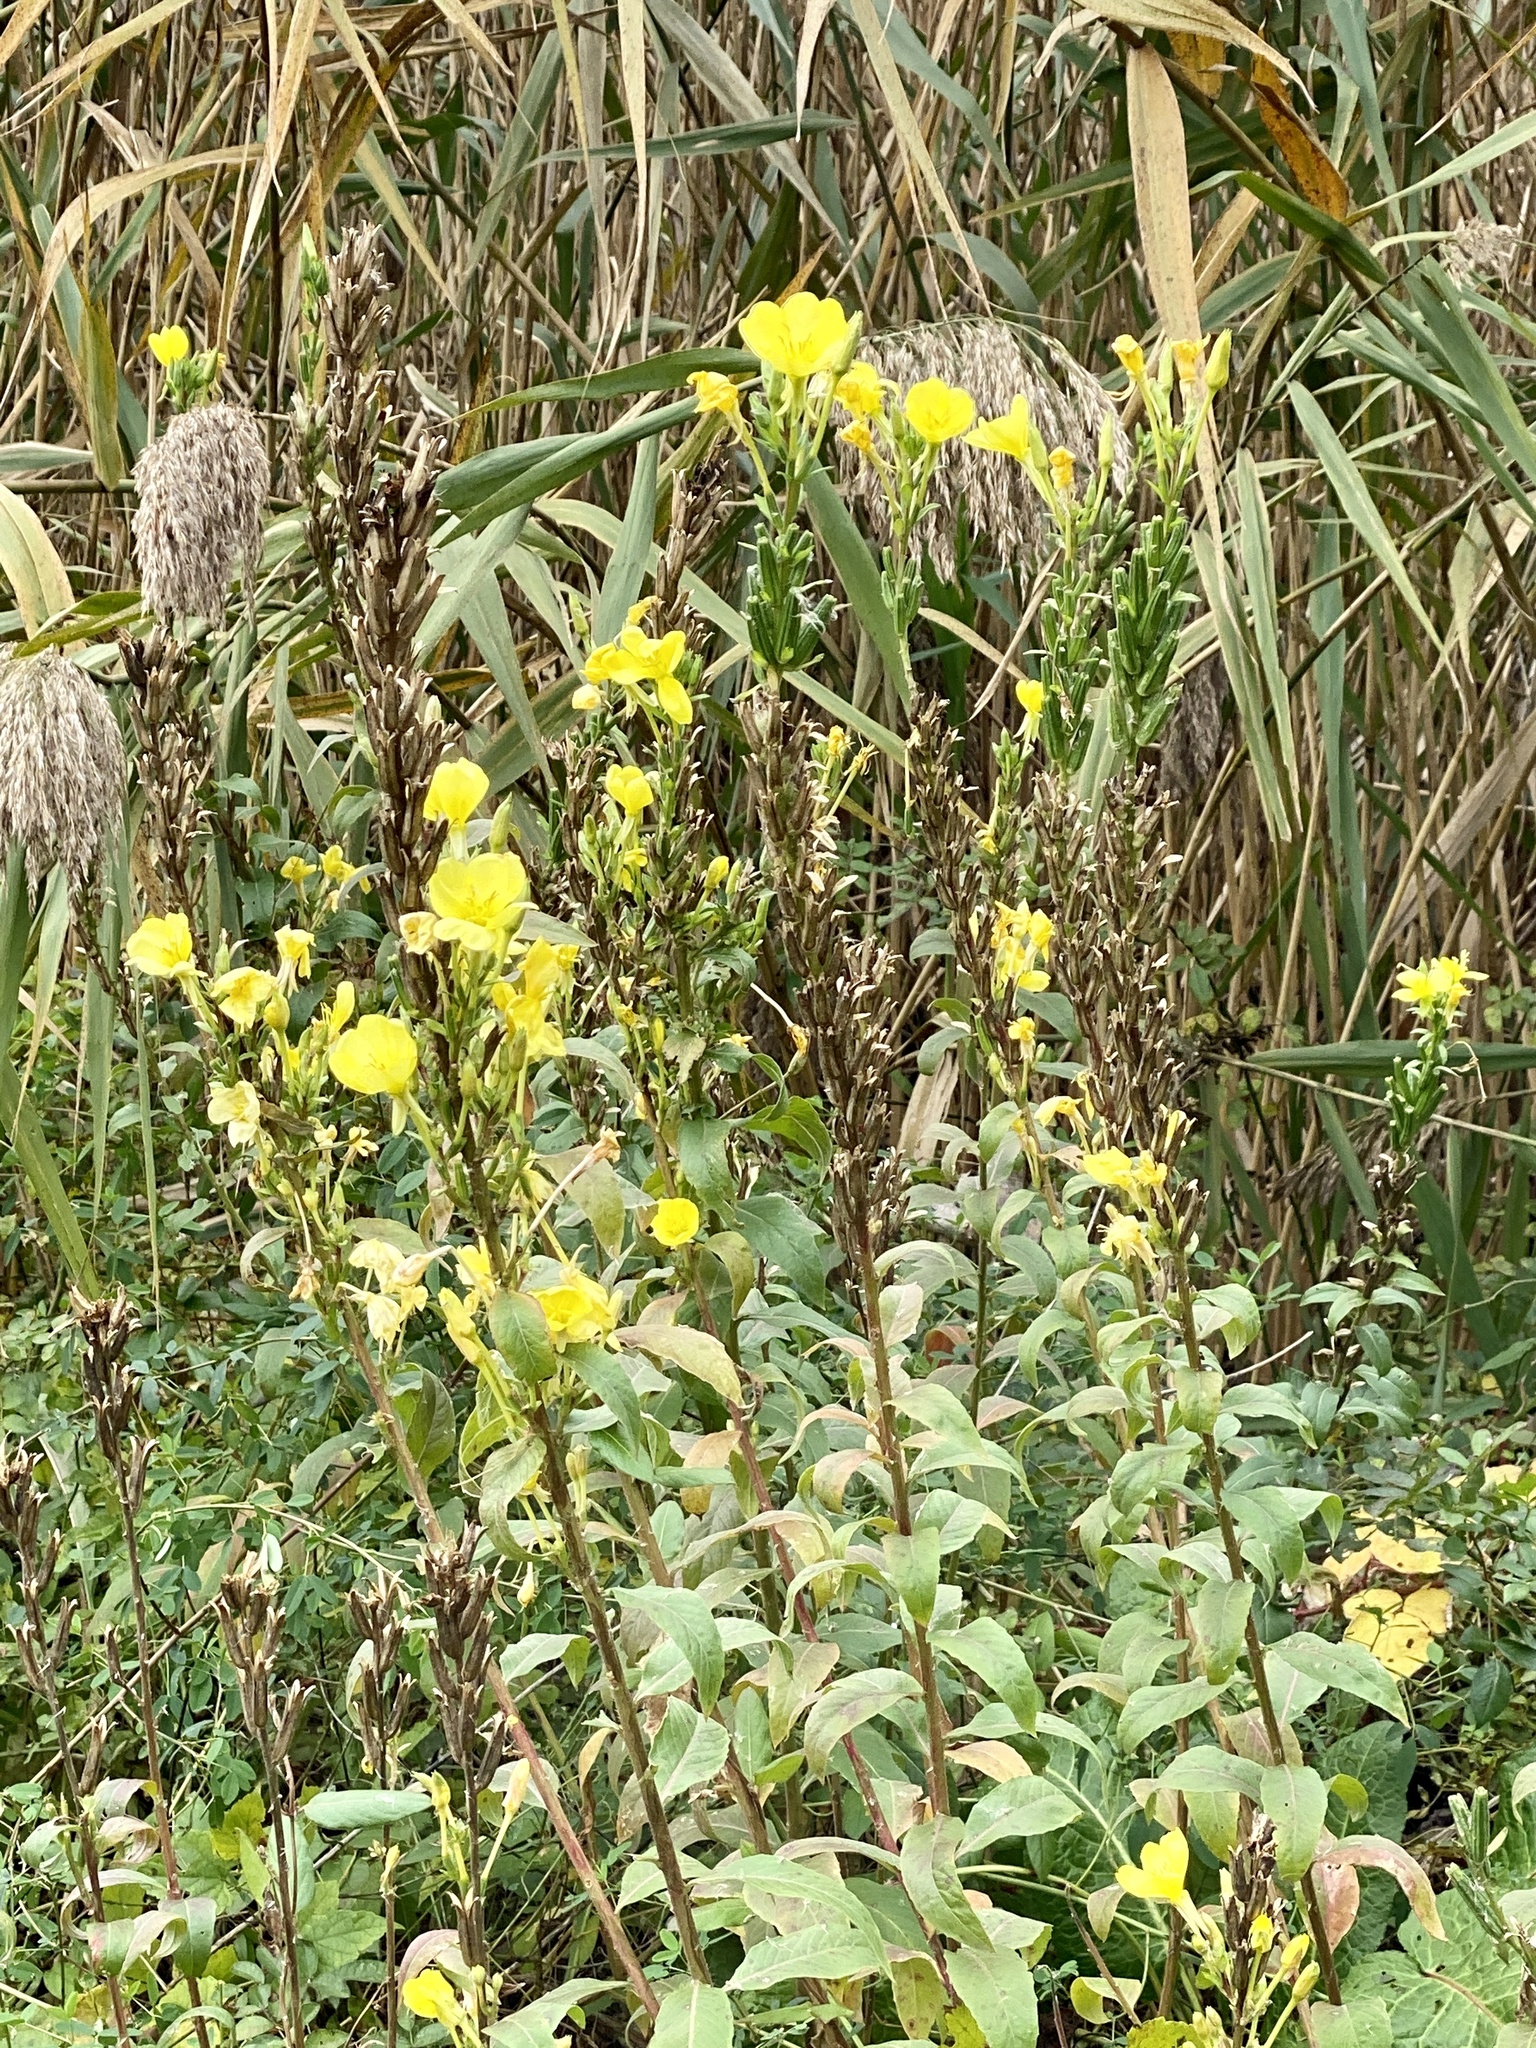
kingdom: Plantae
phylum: Tracheophyta
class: Magnoliopsida
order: Myrtales
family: Onagraceae
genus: Oenothera
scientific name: Oenothera biennis
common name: Common evening-primrose
